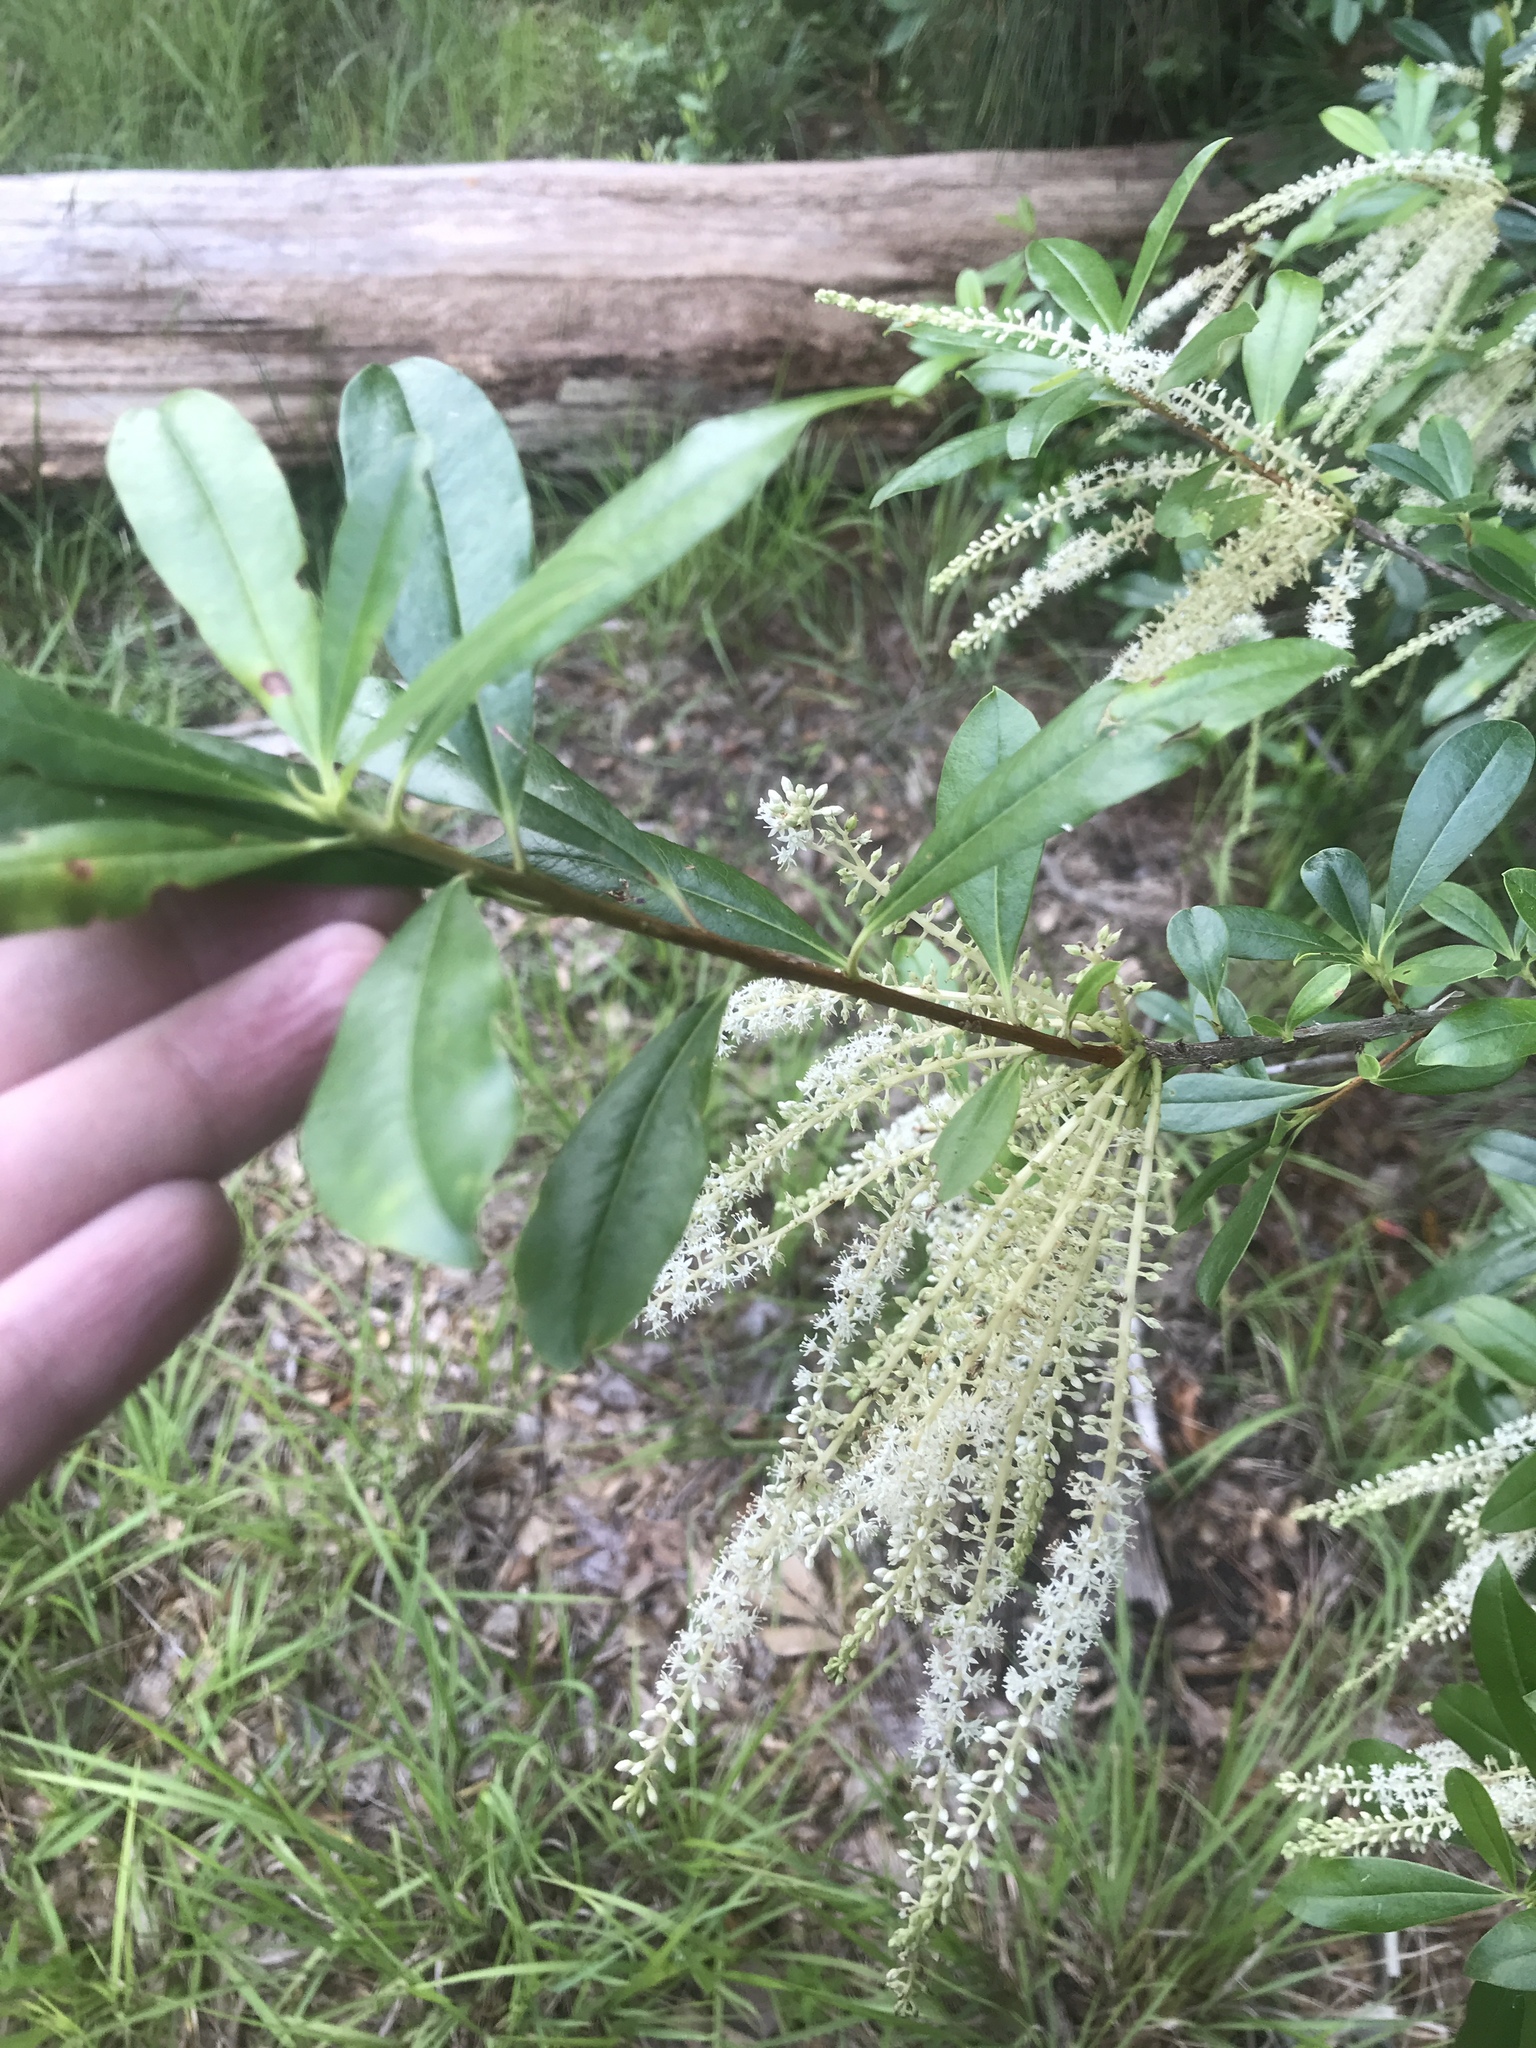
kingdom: Plantae
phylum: Tracheophyta
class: Magnoliopsida
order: Ericales
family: Cyrillaceae
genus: Cyrilla
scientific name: Cyrilla racemiflora
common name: Black titi
